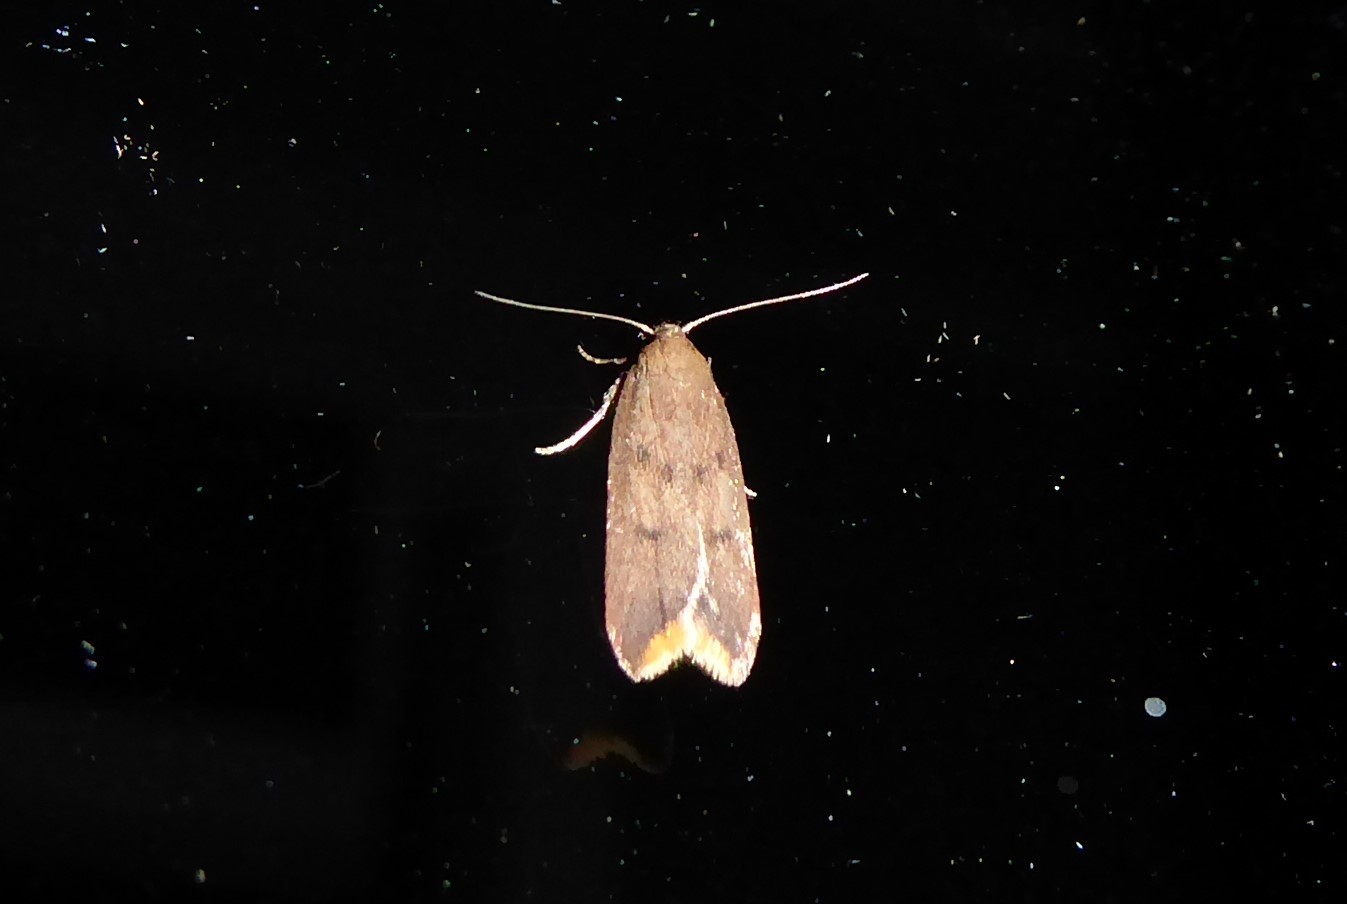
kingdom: Animalia
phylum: Arthropoda
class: Insecta
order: Lepidoptera
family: Oecophoridae
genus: Tachystola
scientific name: Tachystola acroxantha
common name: Ruddy streak
